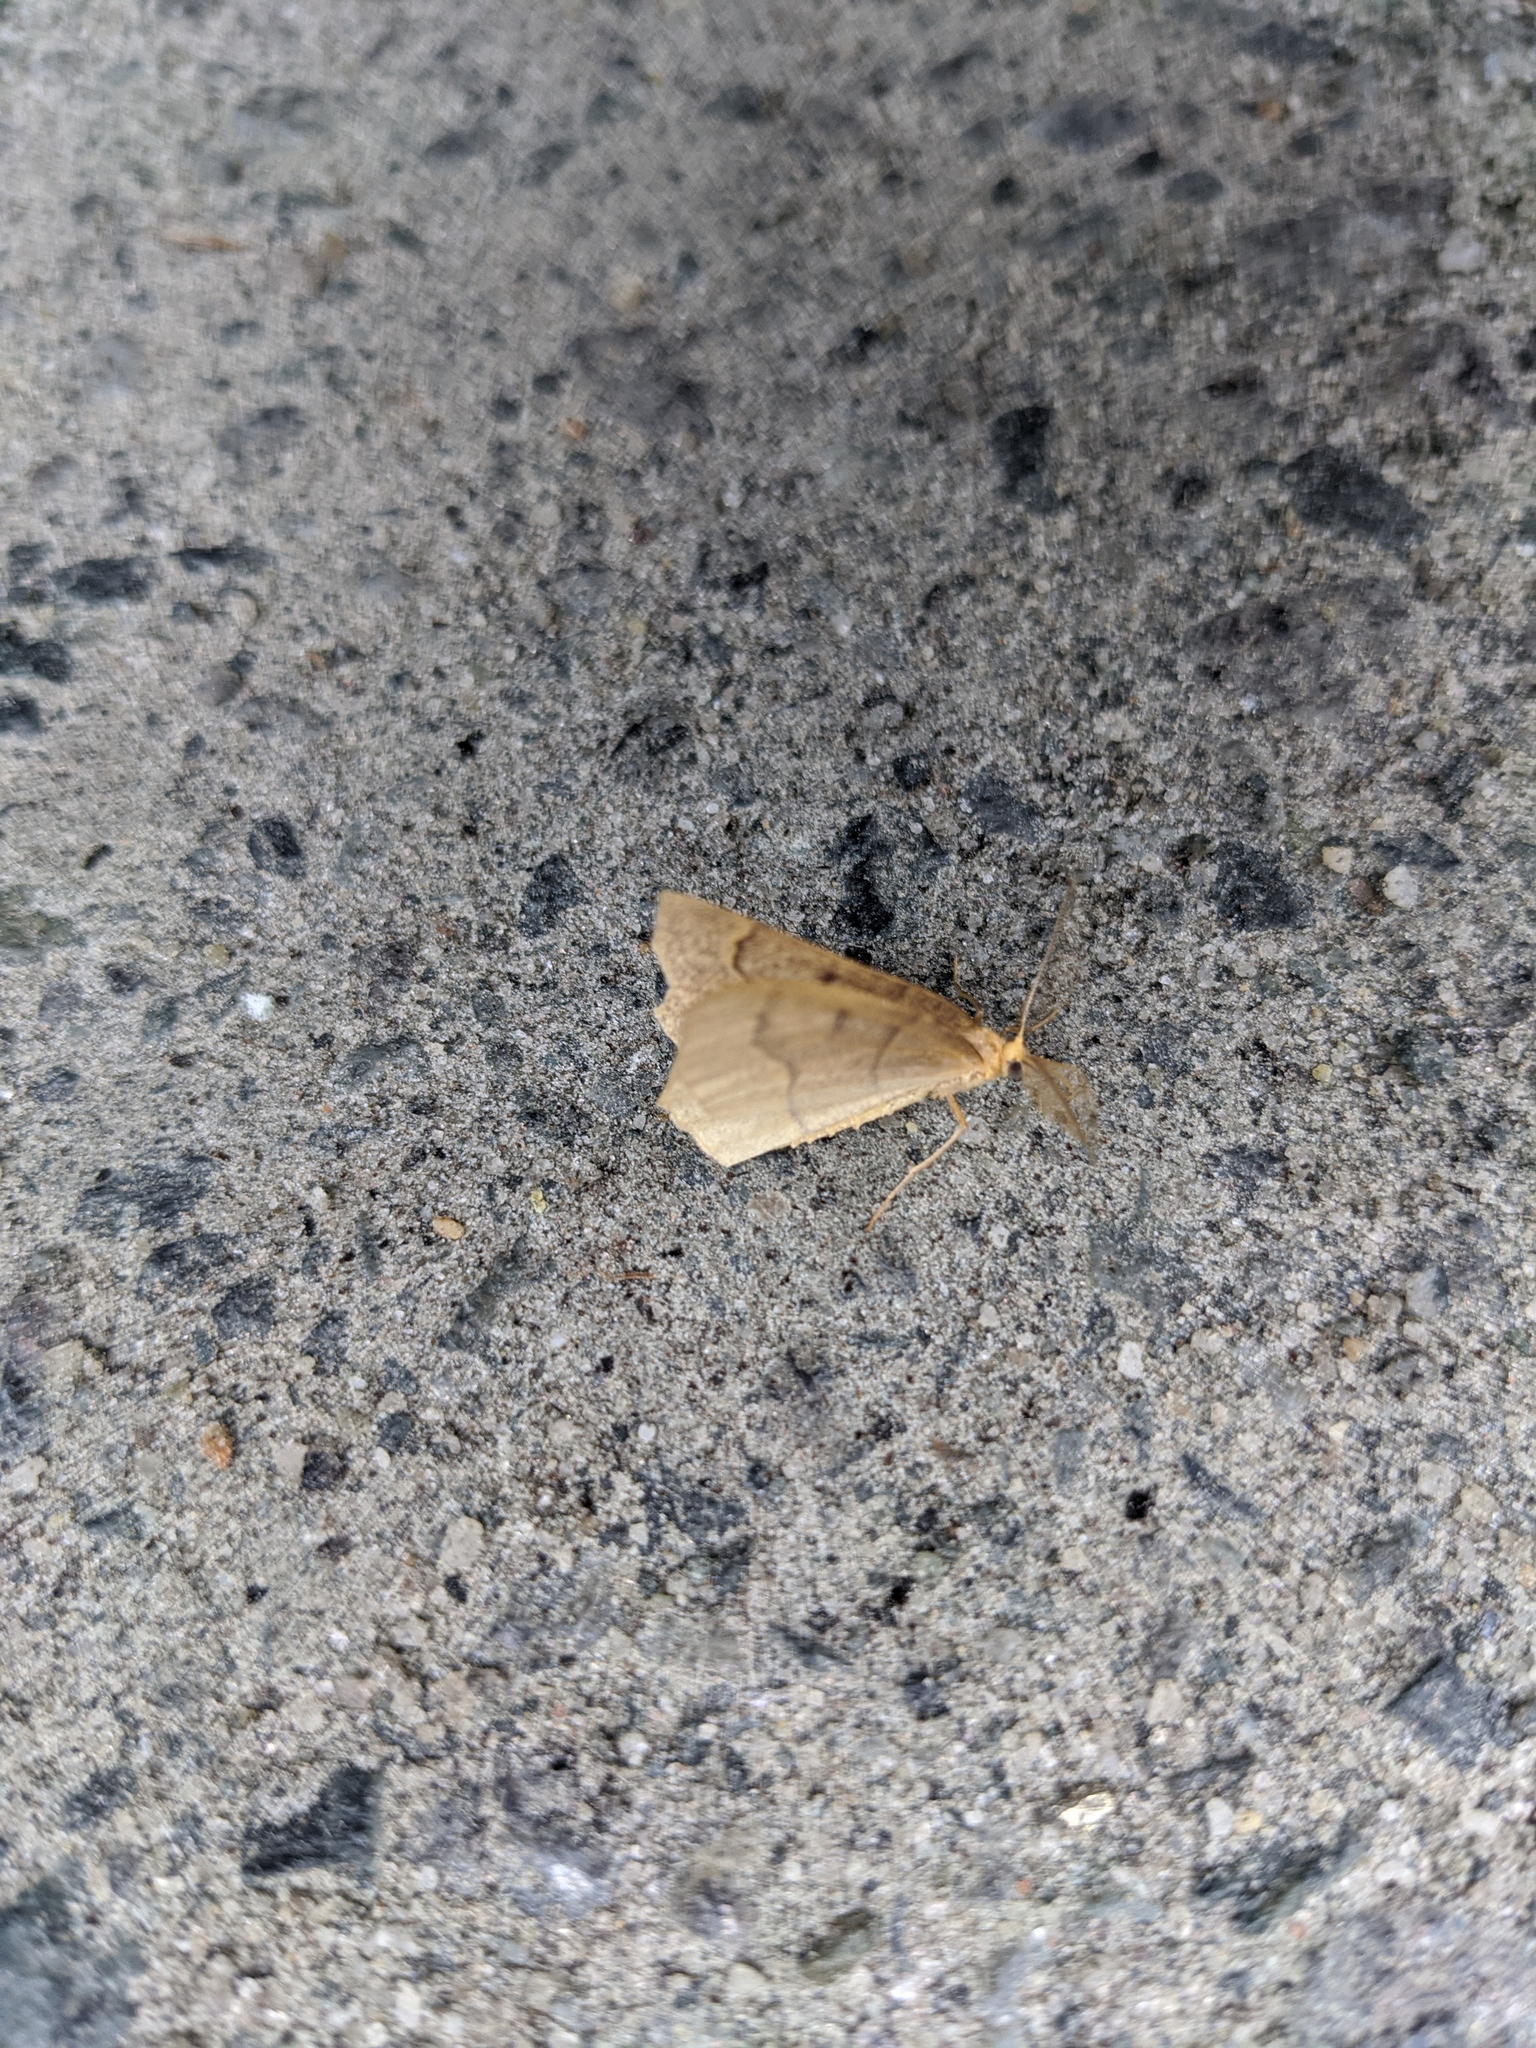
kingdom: Animalia
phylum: Arthropoda
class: Insecta
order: Lepidoptera
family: Geometridae
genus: Lambdina
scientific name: Lambdina fiscellaria
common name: Hemlock looper
